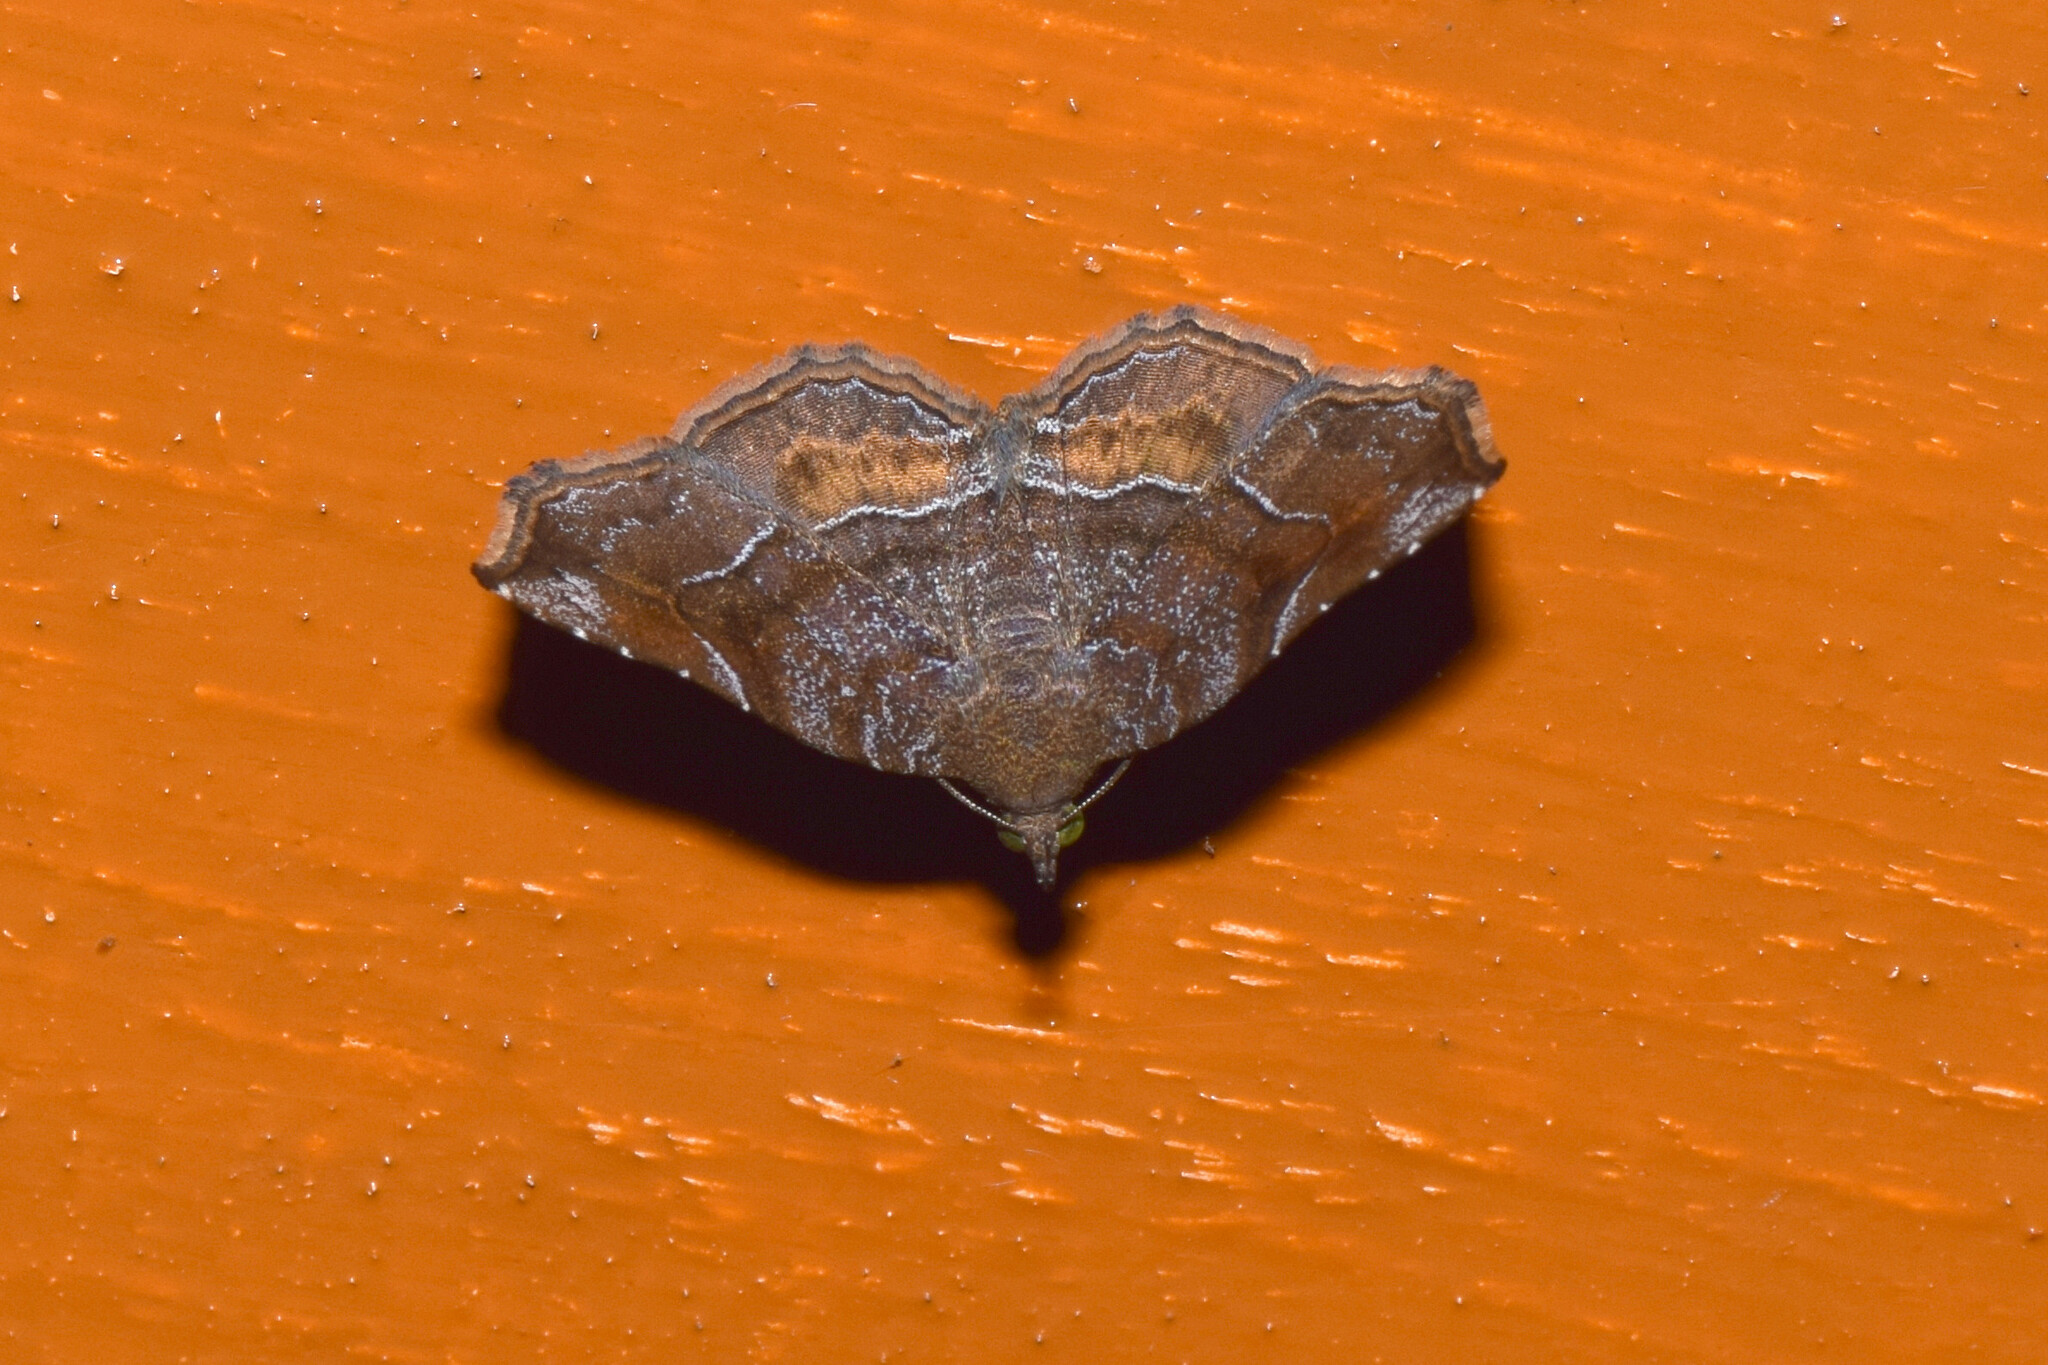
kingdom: Animalia
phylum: Arthropoda
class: Insecta
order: Lepidoptera
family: Erebidae
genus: Pangrapta
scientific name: Pangrapta pannosa
